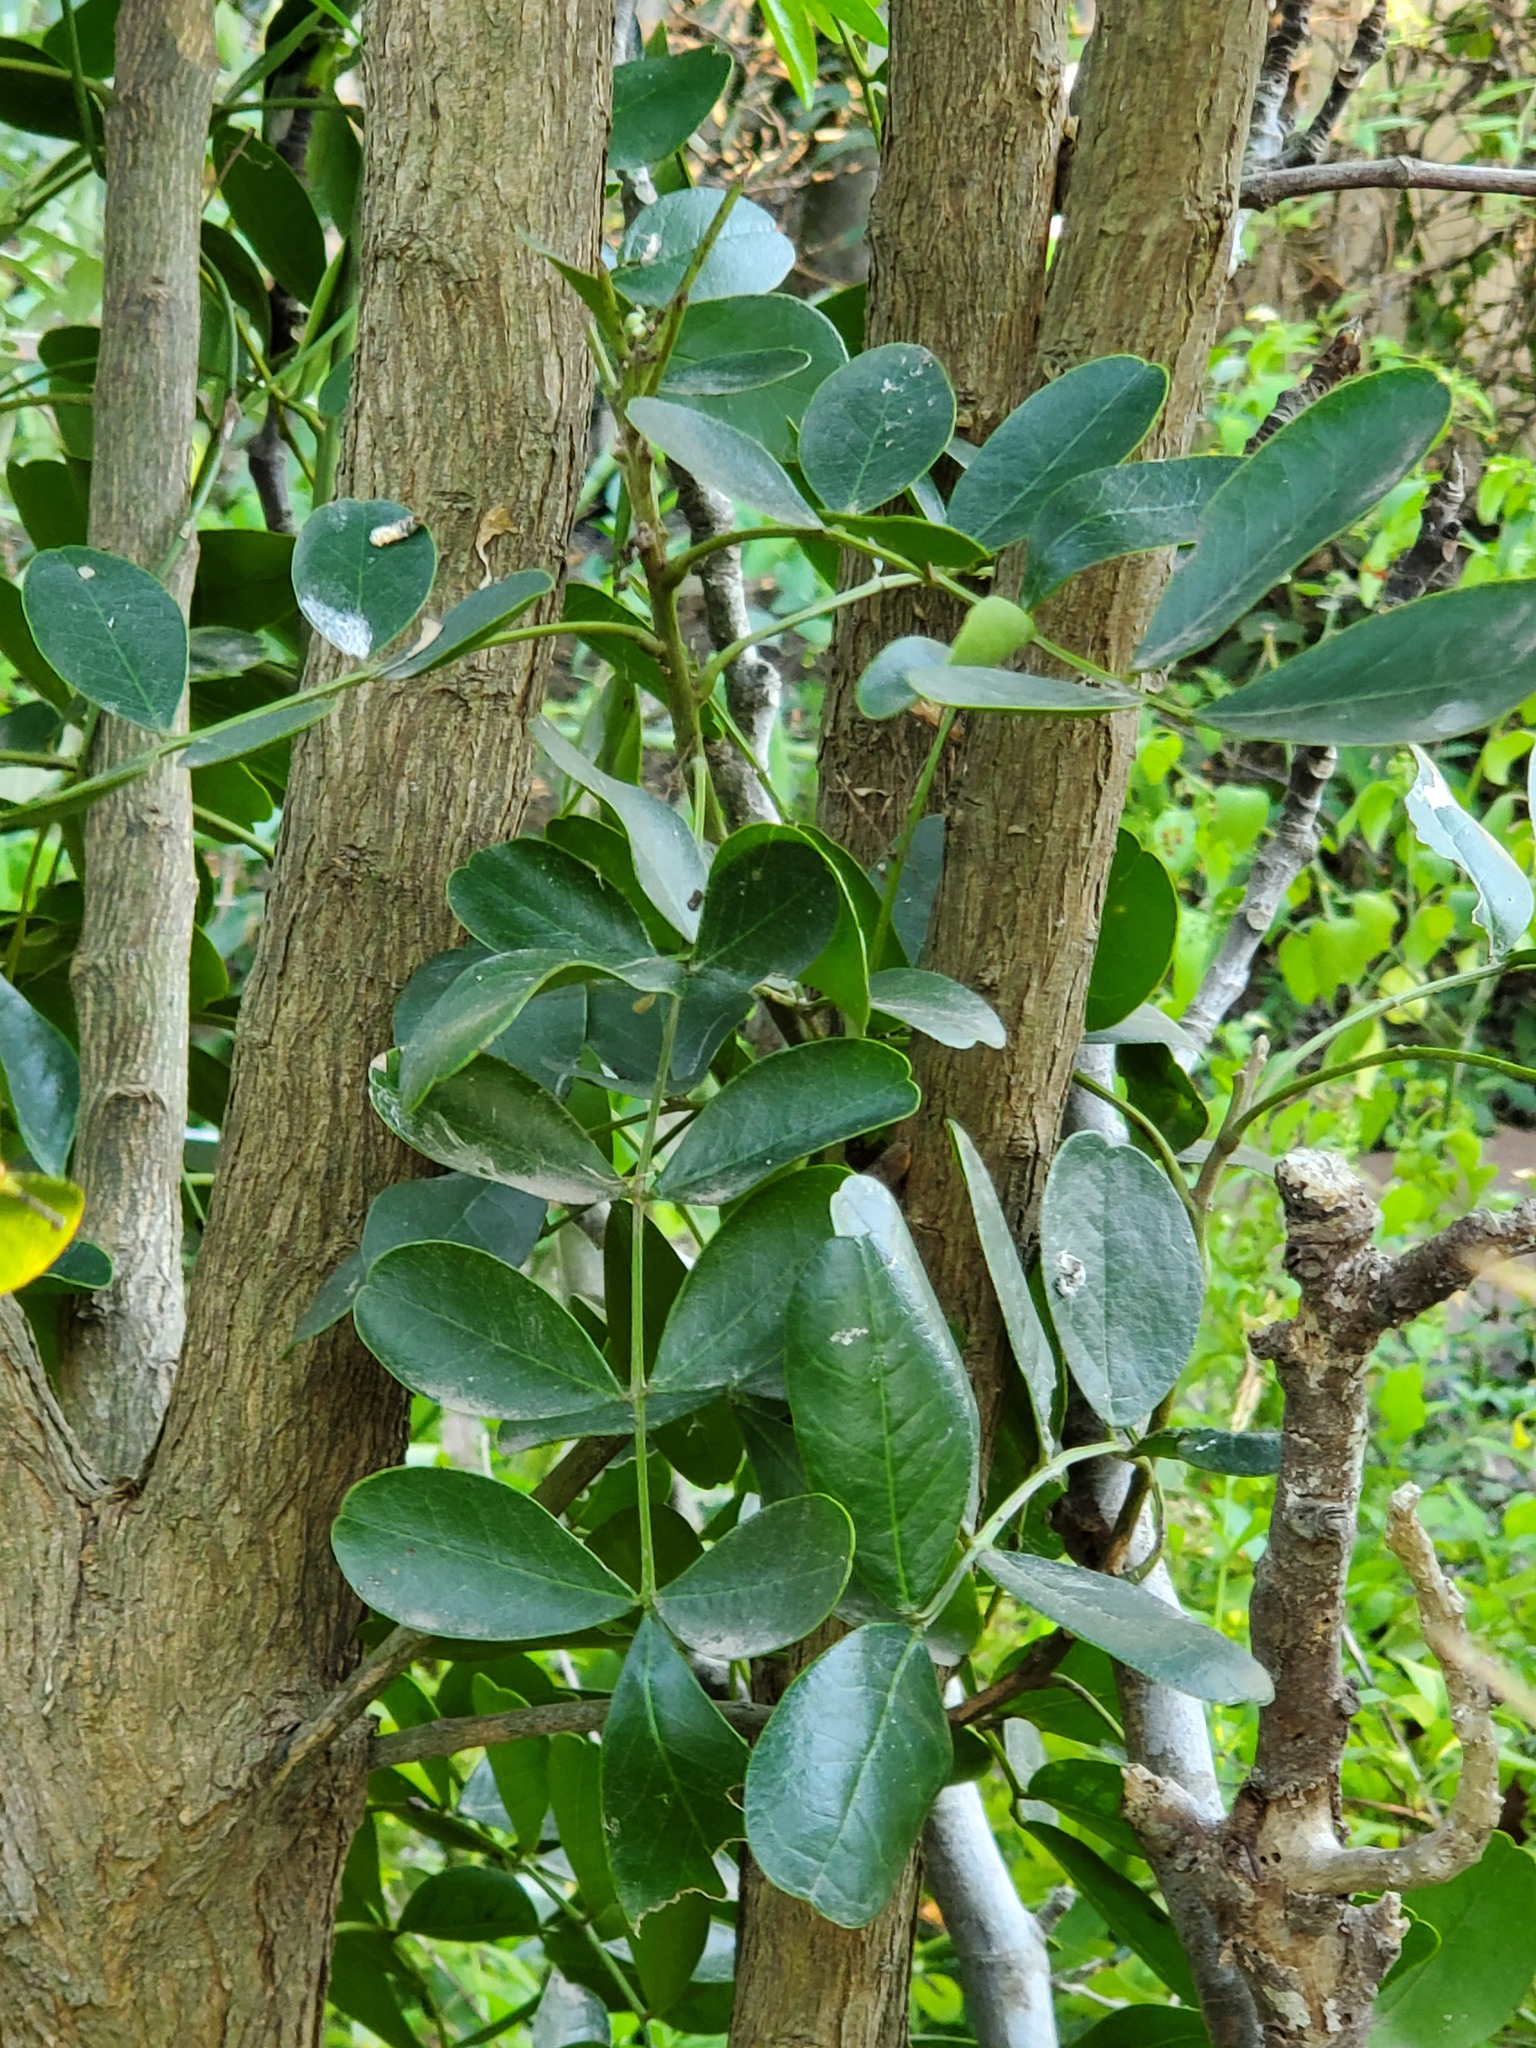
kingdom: Plantae
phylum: Tracheophyta
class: Magnoliopsida
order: Fabales
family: Fabaceae
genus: Dermatophyllum
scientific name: Dermatophyllum secundiflorum
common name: Texas-mountain-laurel
